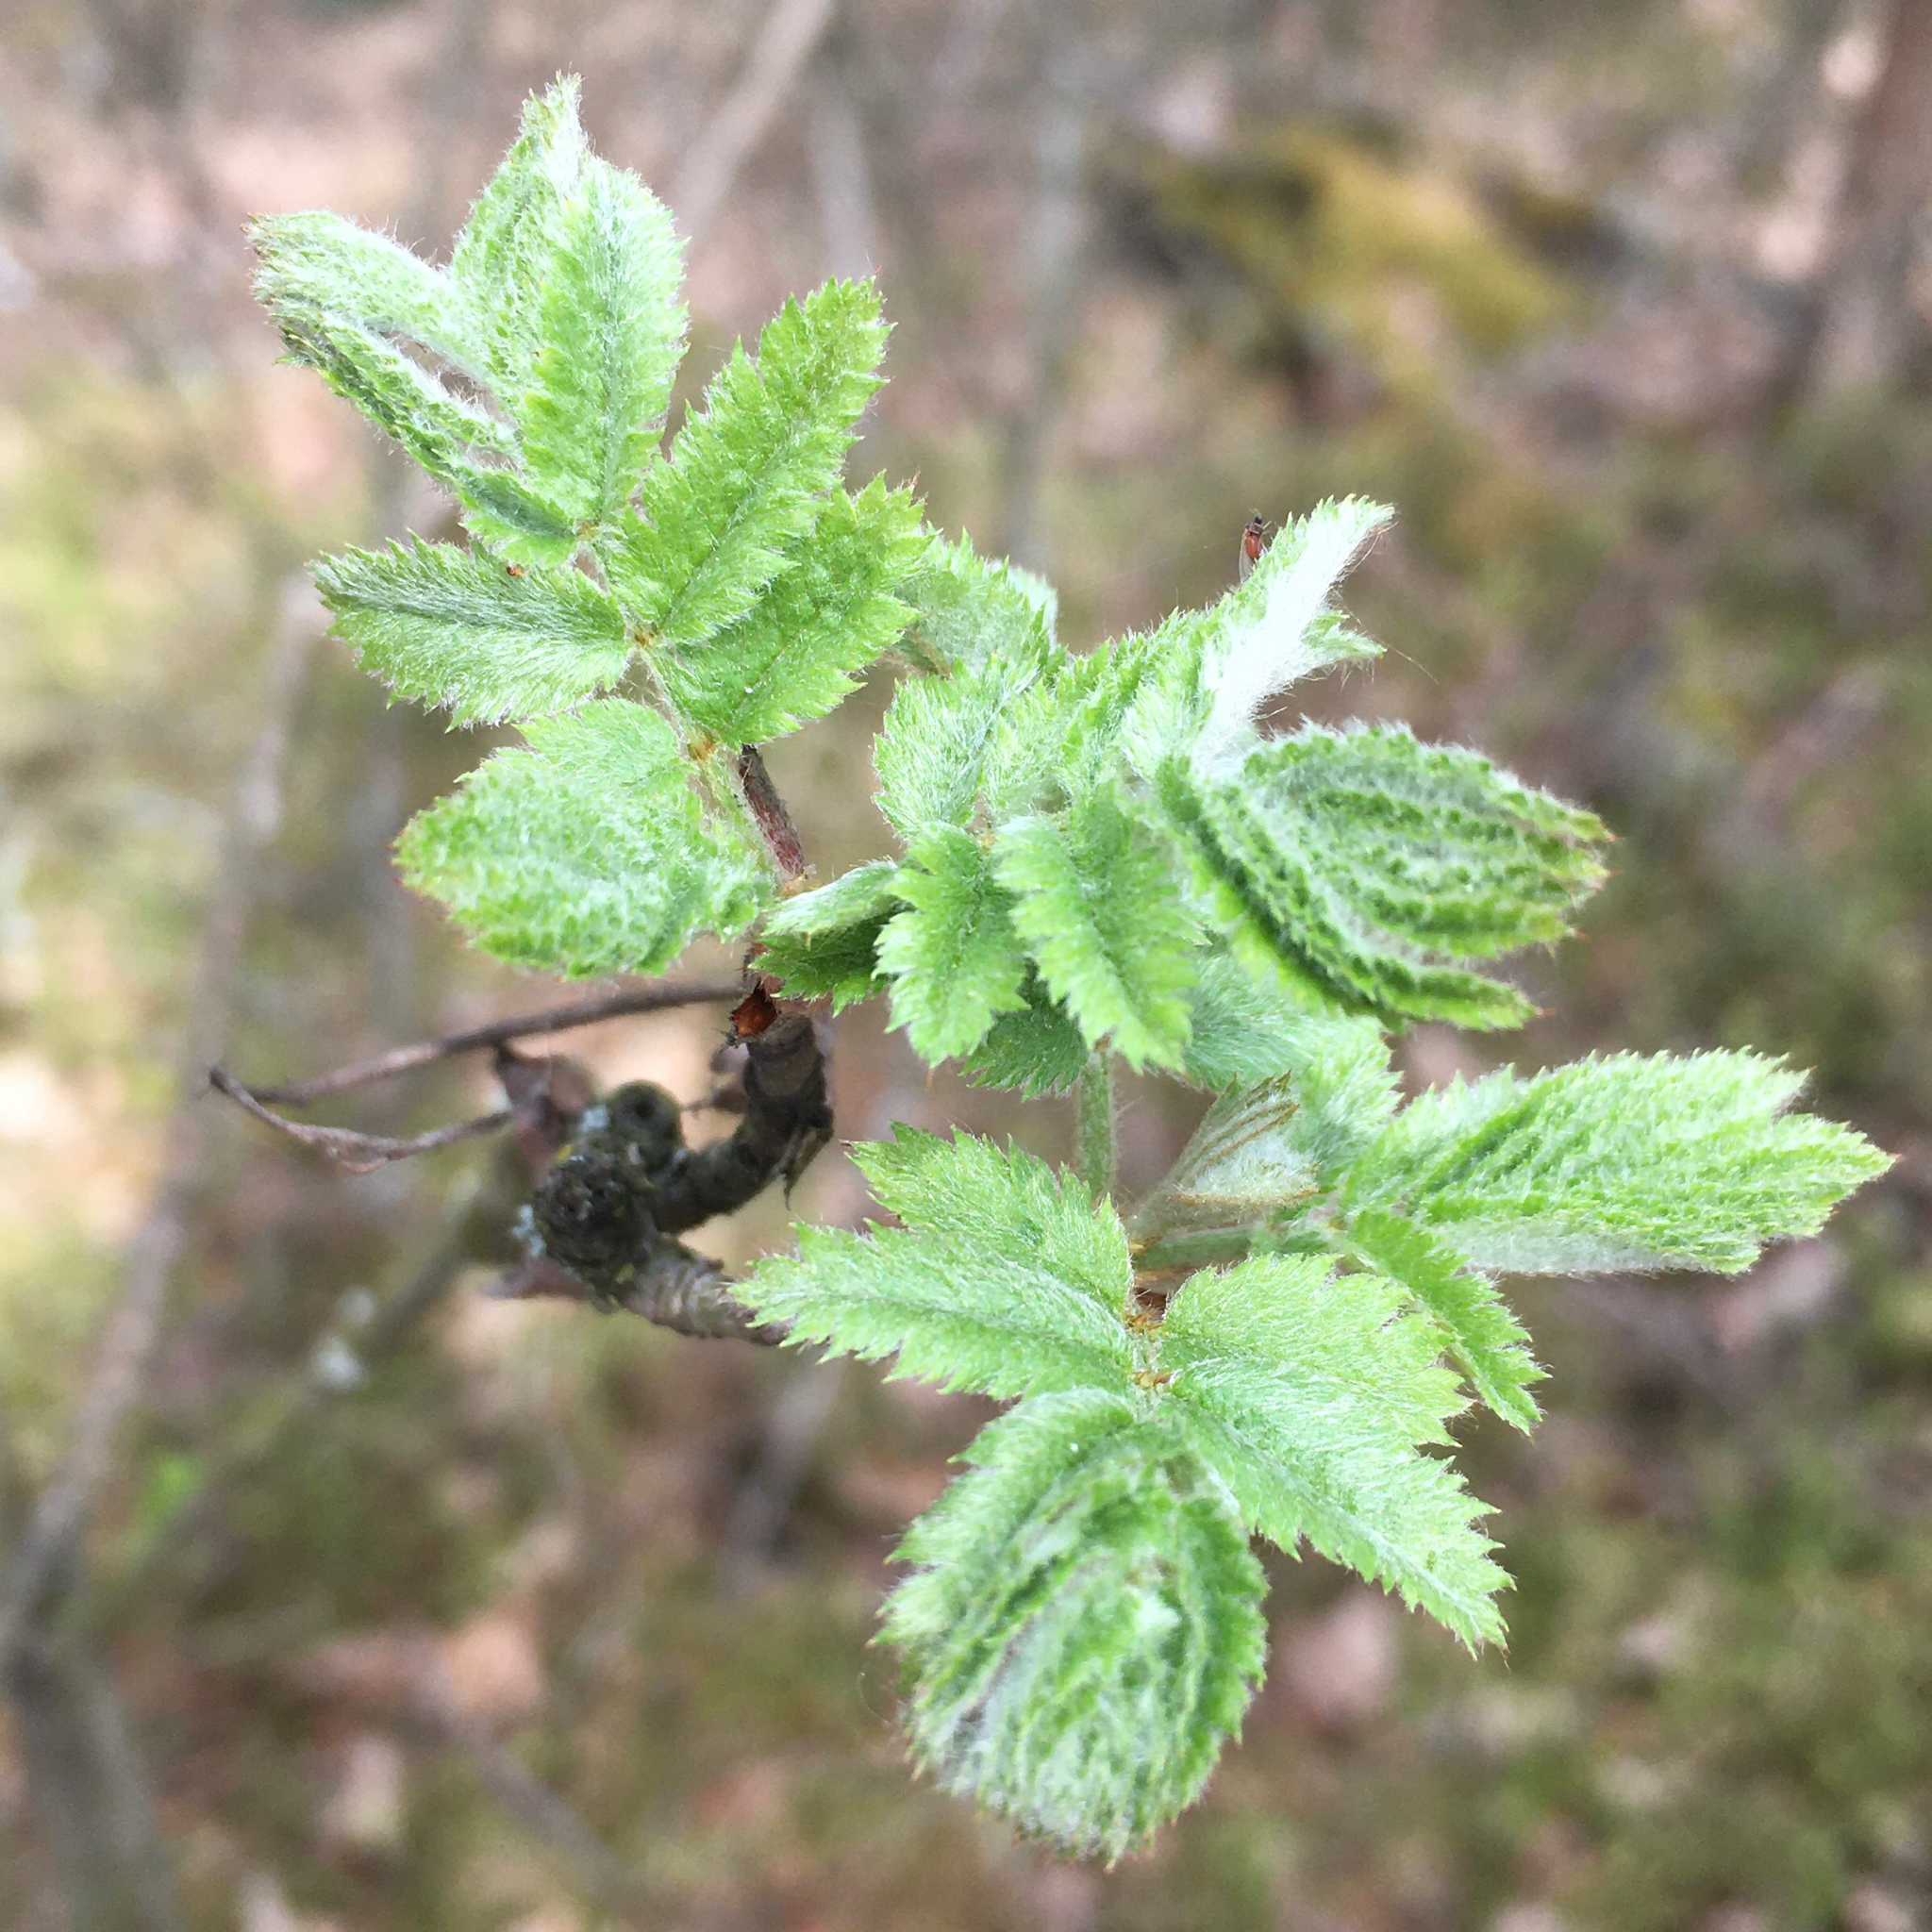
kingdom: Plantae
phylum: Tracheophyta
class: Magnoliopsida
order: Rosales
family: Rosaceae
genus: Sorbus
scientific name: Sorbus aucuparia
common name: Rowan
